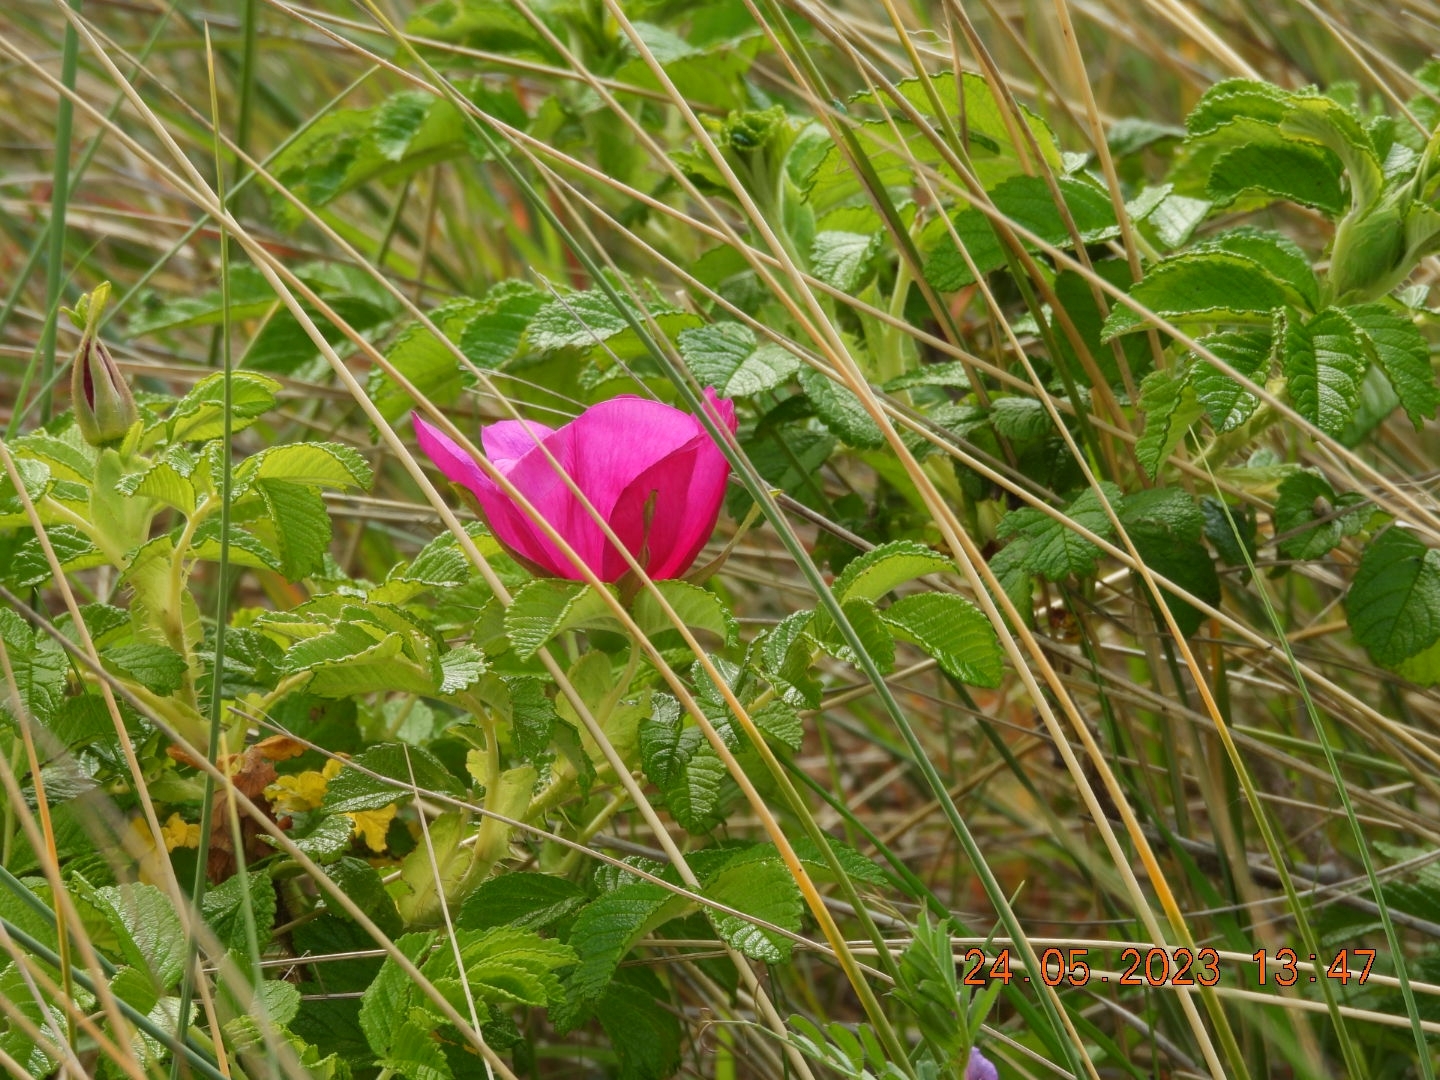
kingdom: Plantae
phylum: Tracheophyta
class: Magnoliopsida
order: Rosales
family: Rosaceae
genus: Rosa
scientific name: Rosa rugosa
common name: Japanese rose
